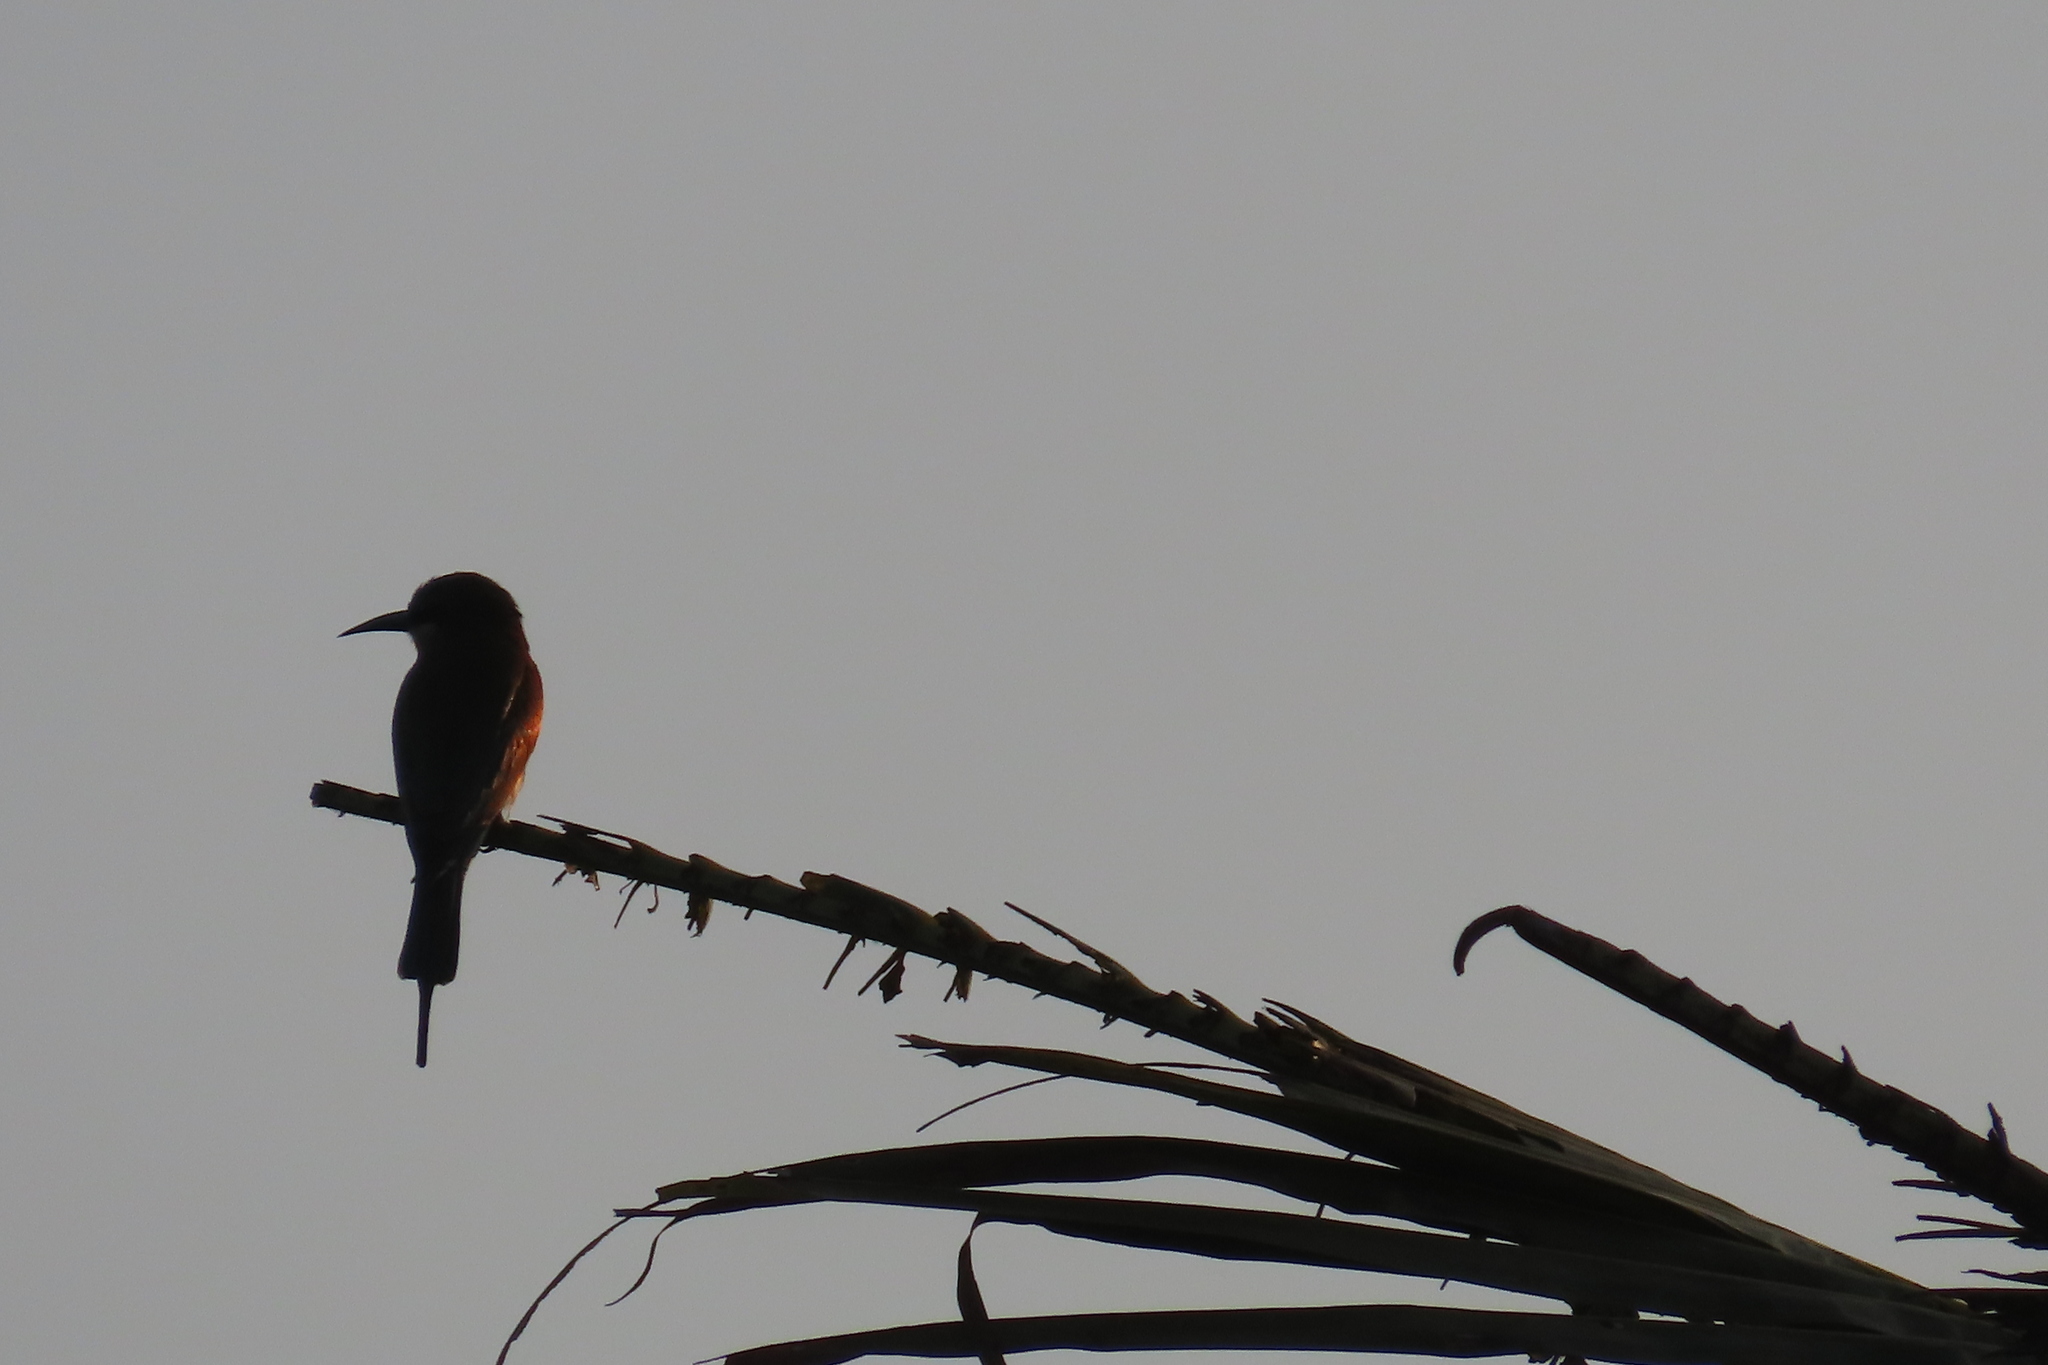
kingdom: Animalia
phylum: Chordata
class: Aves
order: Coraciiformes
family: Meropidae
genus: Merops
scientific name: Merops philippinus
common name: Blue-tailed bee-eater
